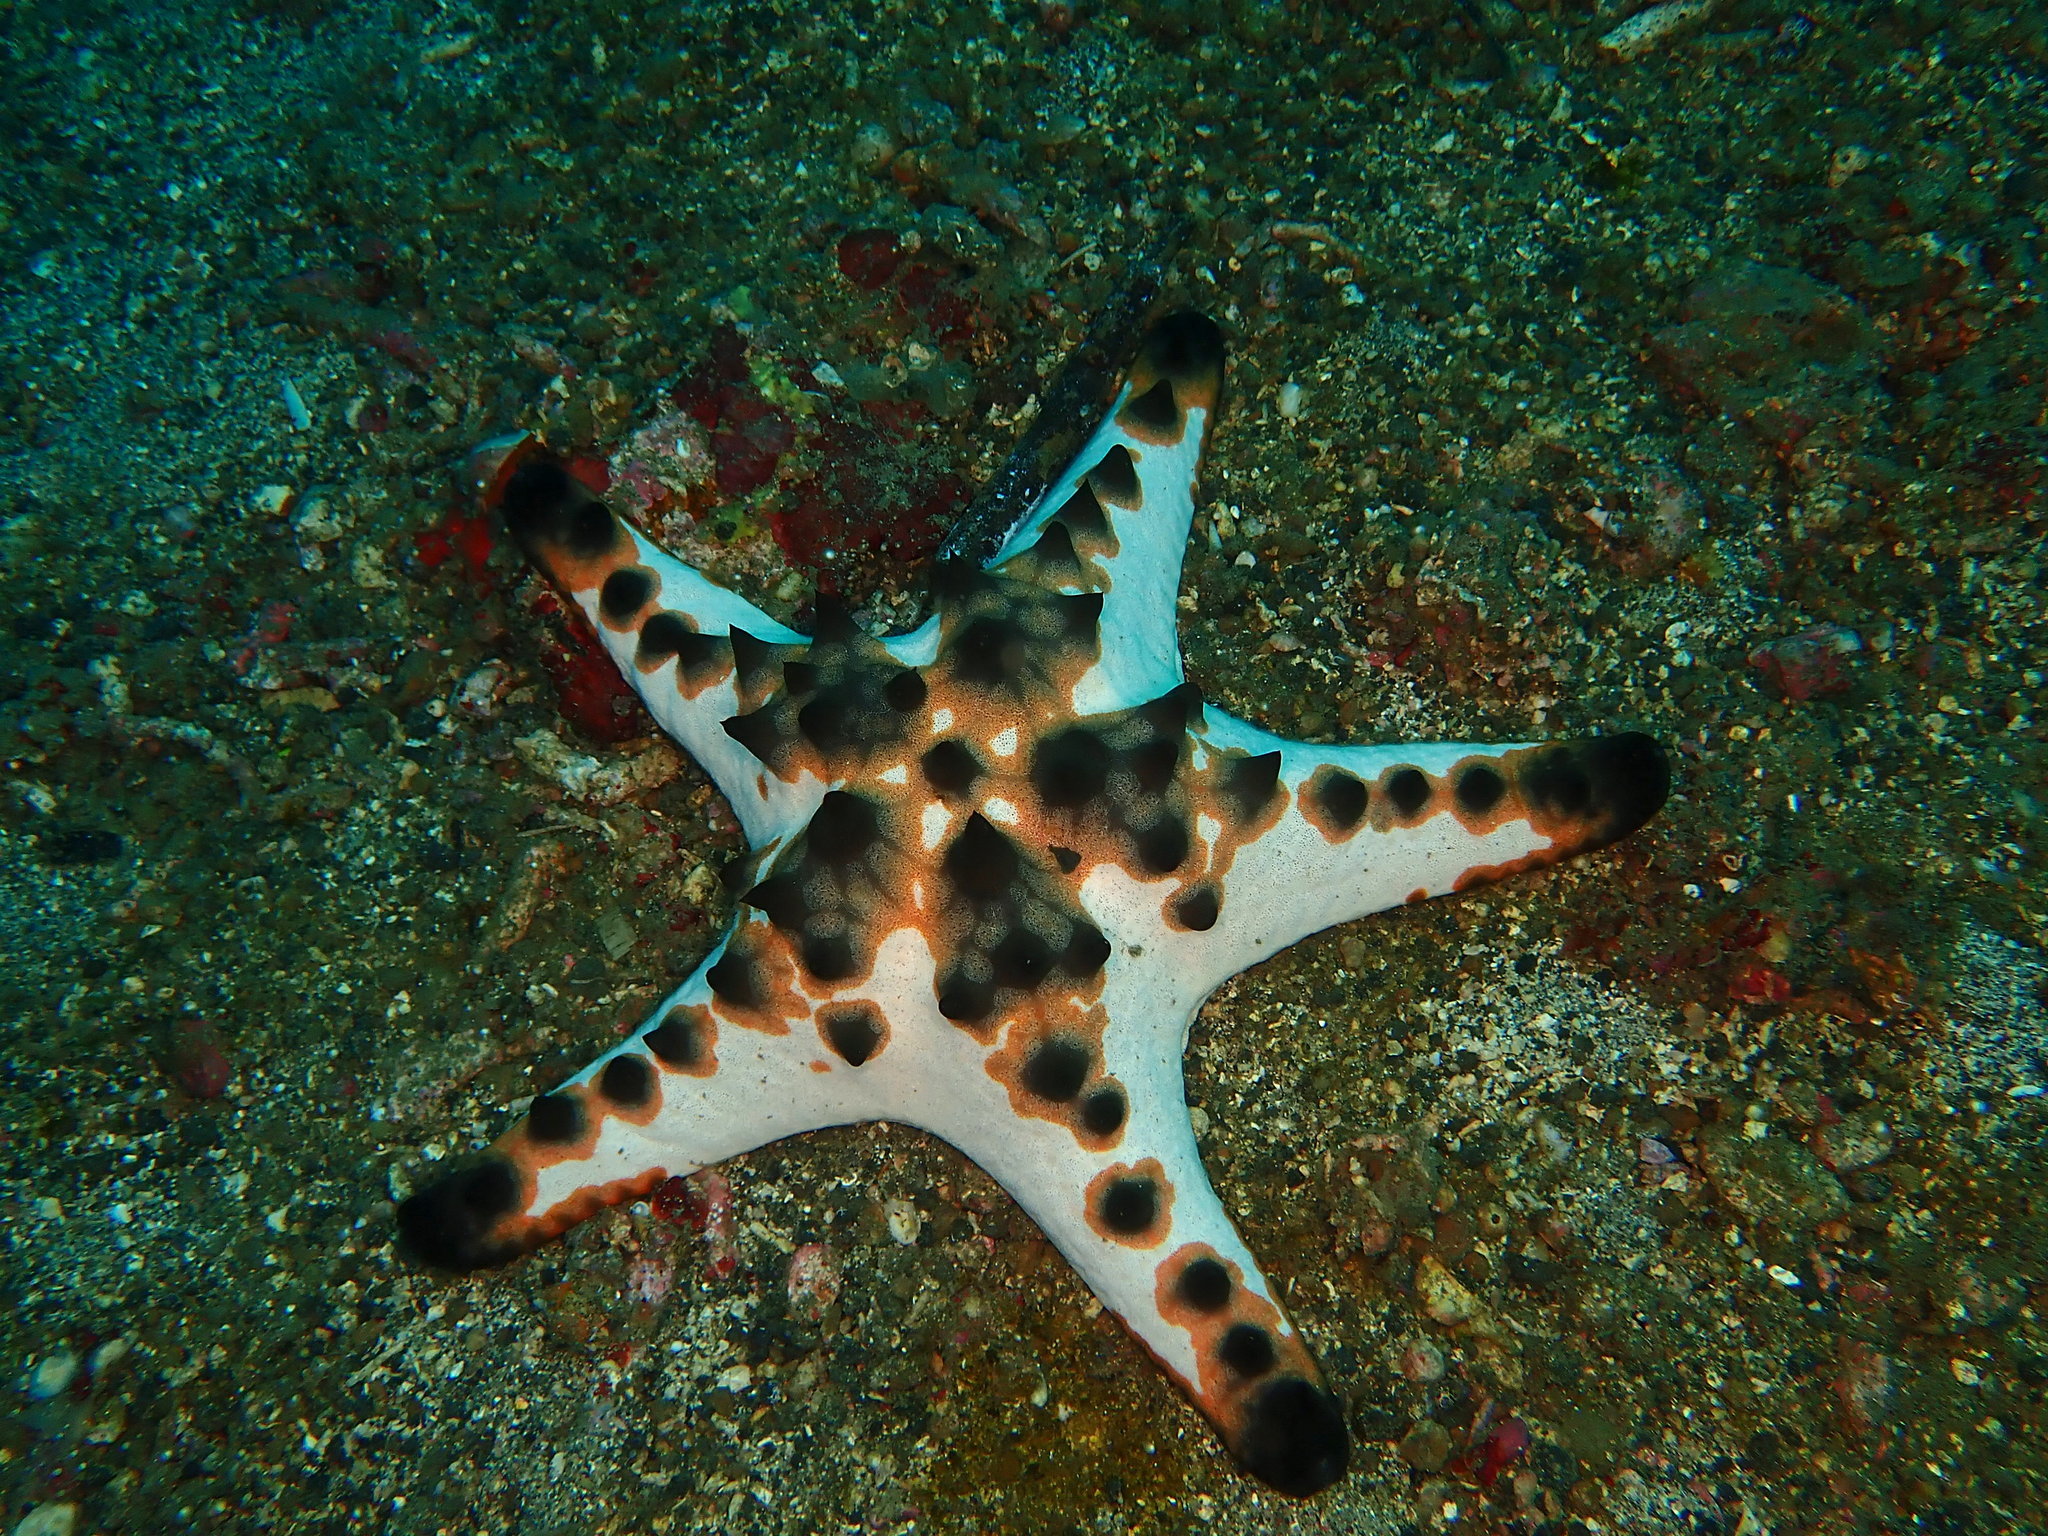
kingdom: Animalia
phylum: Echinodermata
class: Asteroidea
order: Valvatida
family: Oreasteridae
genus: Protoreaster
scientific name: Protoreaster nodosus
